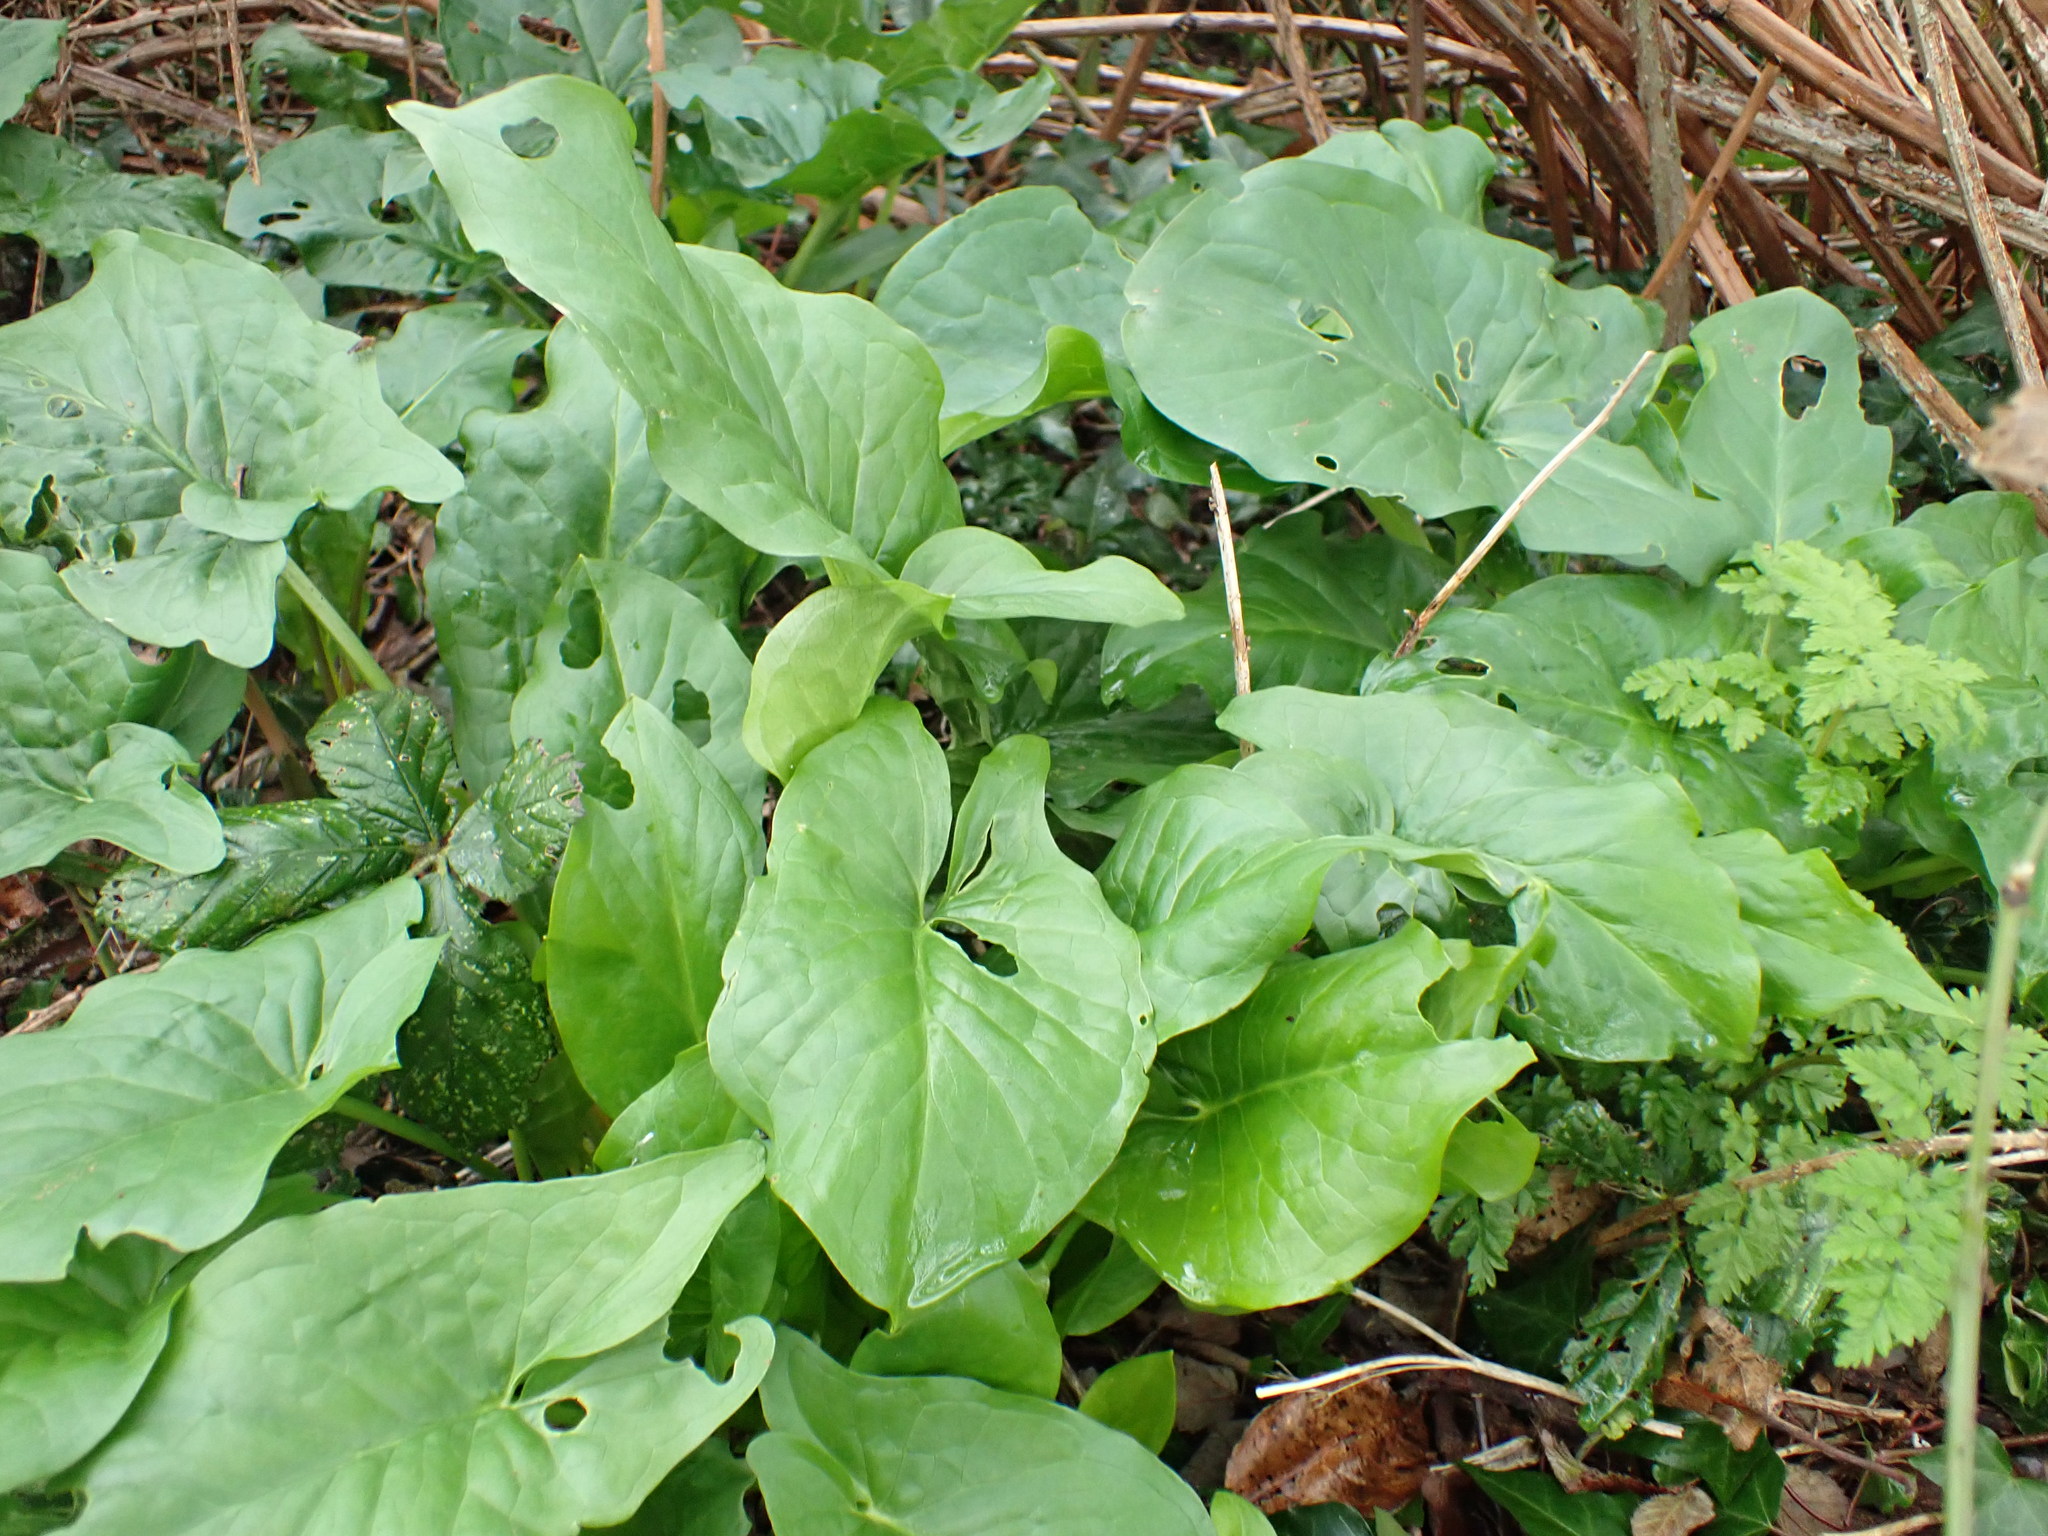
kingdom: Plantae
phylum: Tracheophyta
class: Liliopsida
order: Alismatales
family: Araceae
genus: Arum
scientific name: Arum maculatum
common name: Lords-and-ladies
